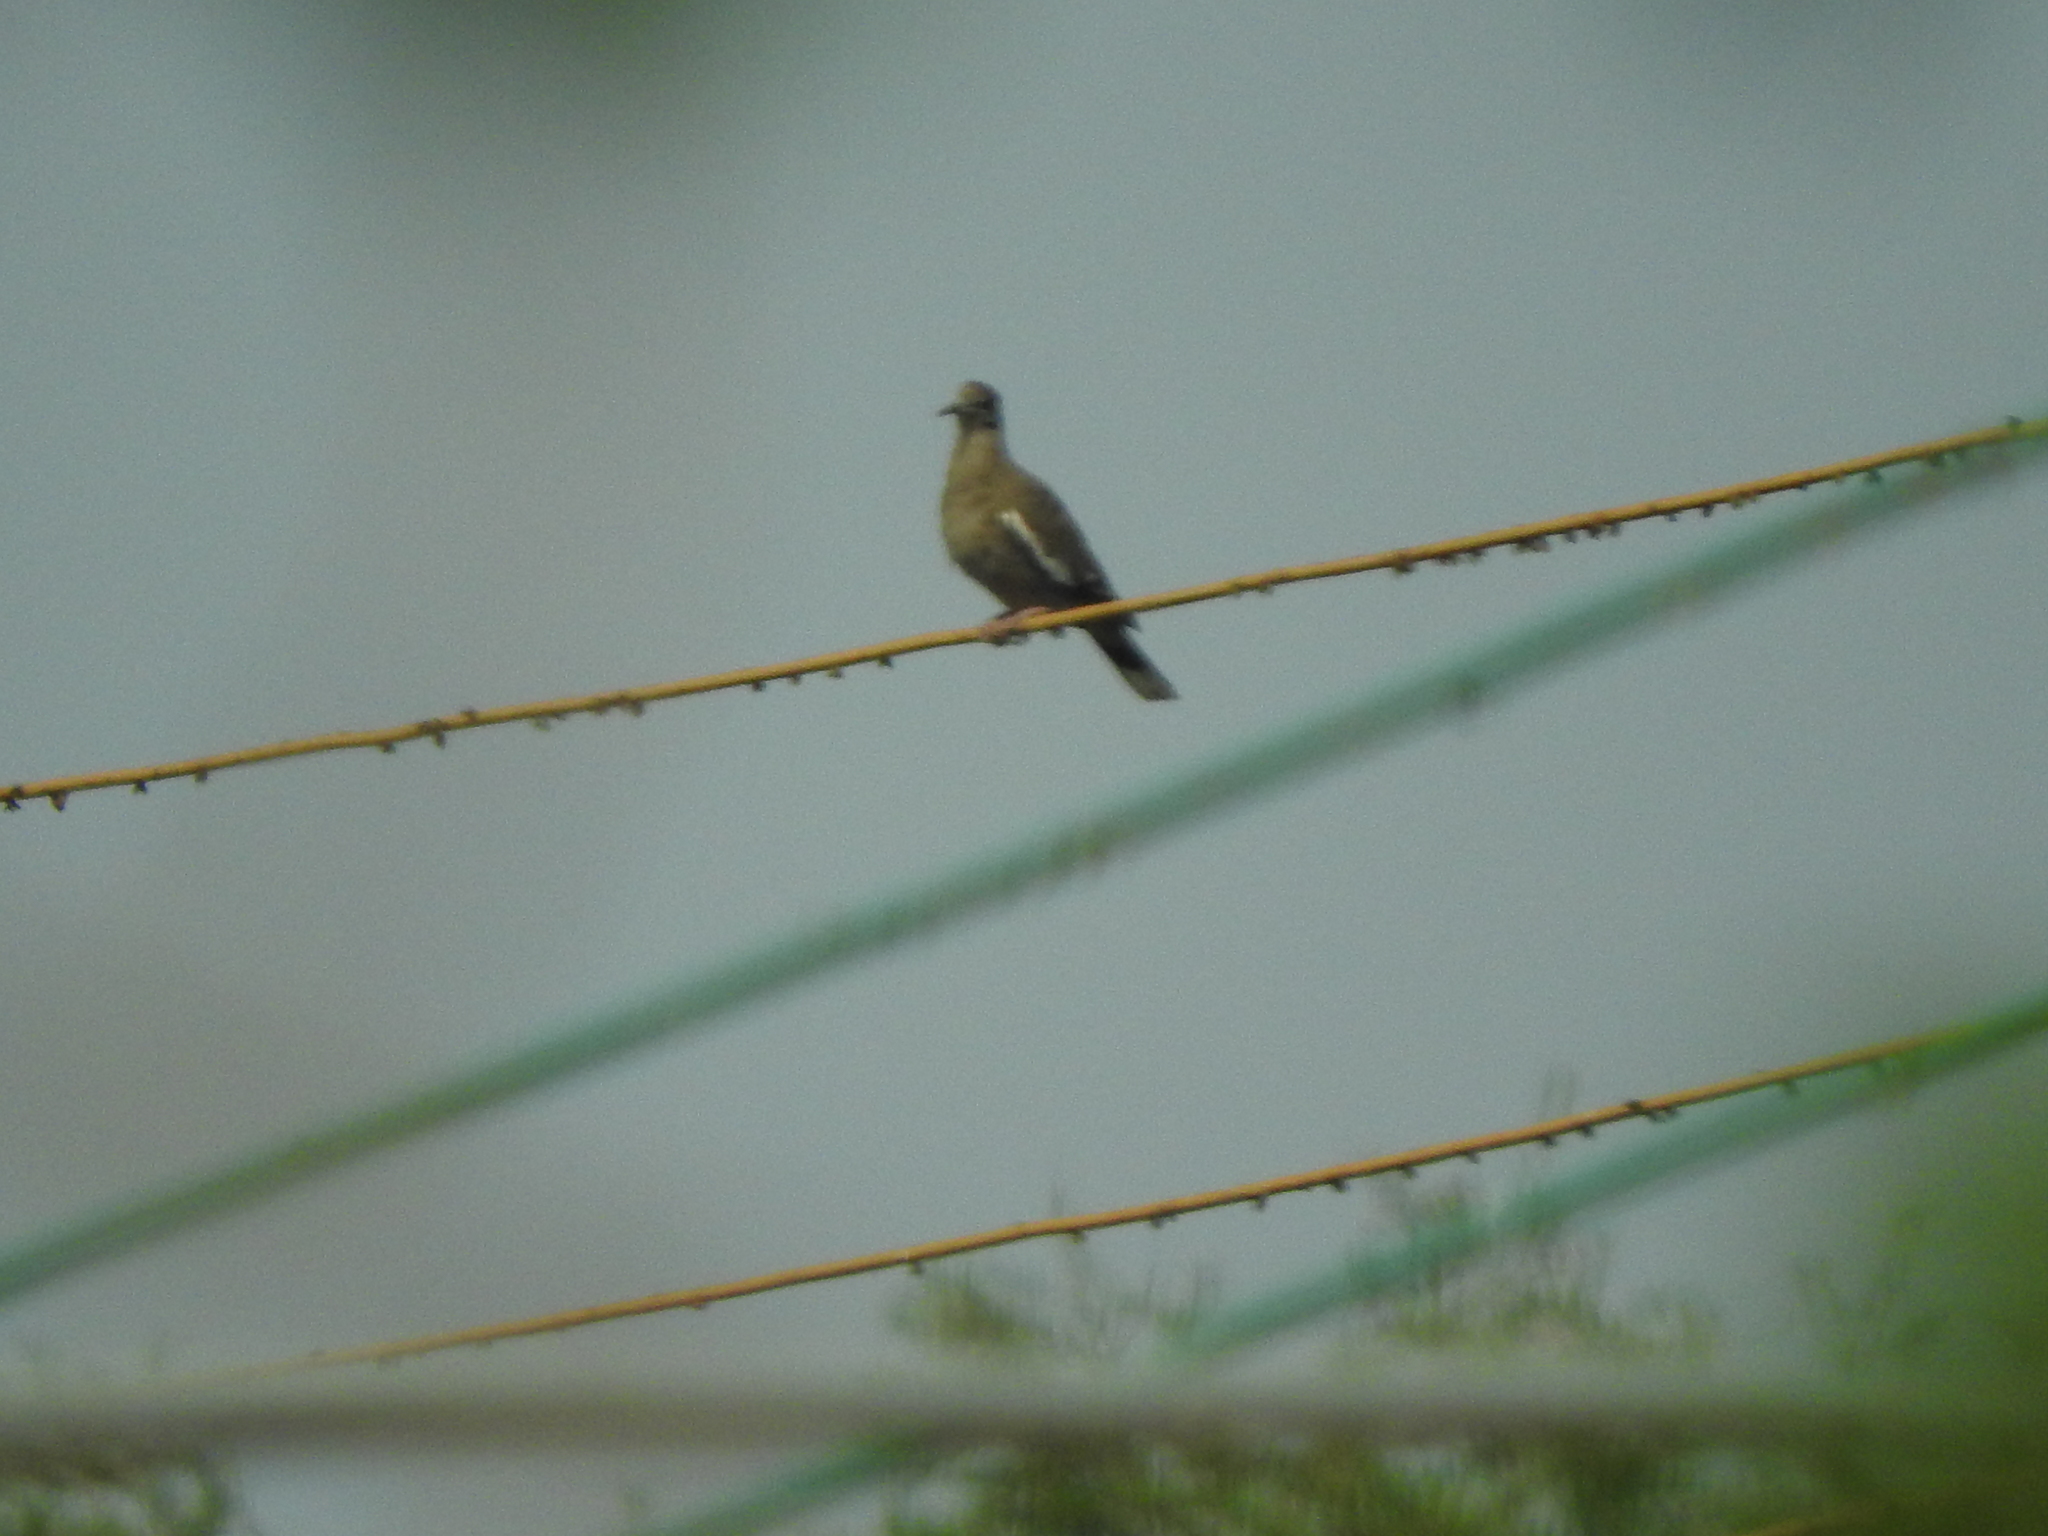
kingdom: Animalia
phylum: Chordata
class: Aves
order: Columbiformes
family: Columbidae
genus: Zenaida
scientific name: Zenaida asiatica
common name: White-winged dove
